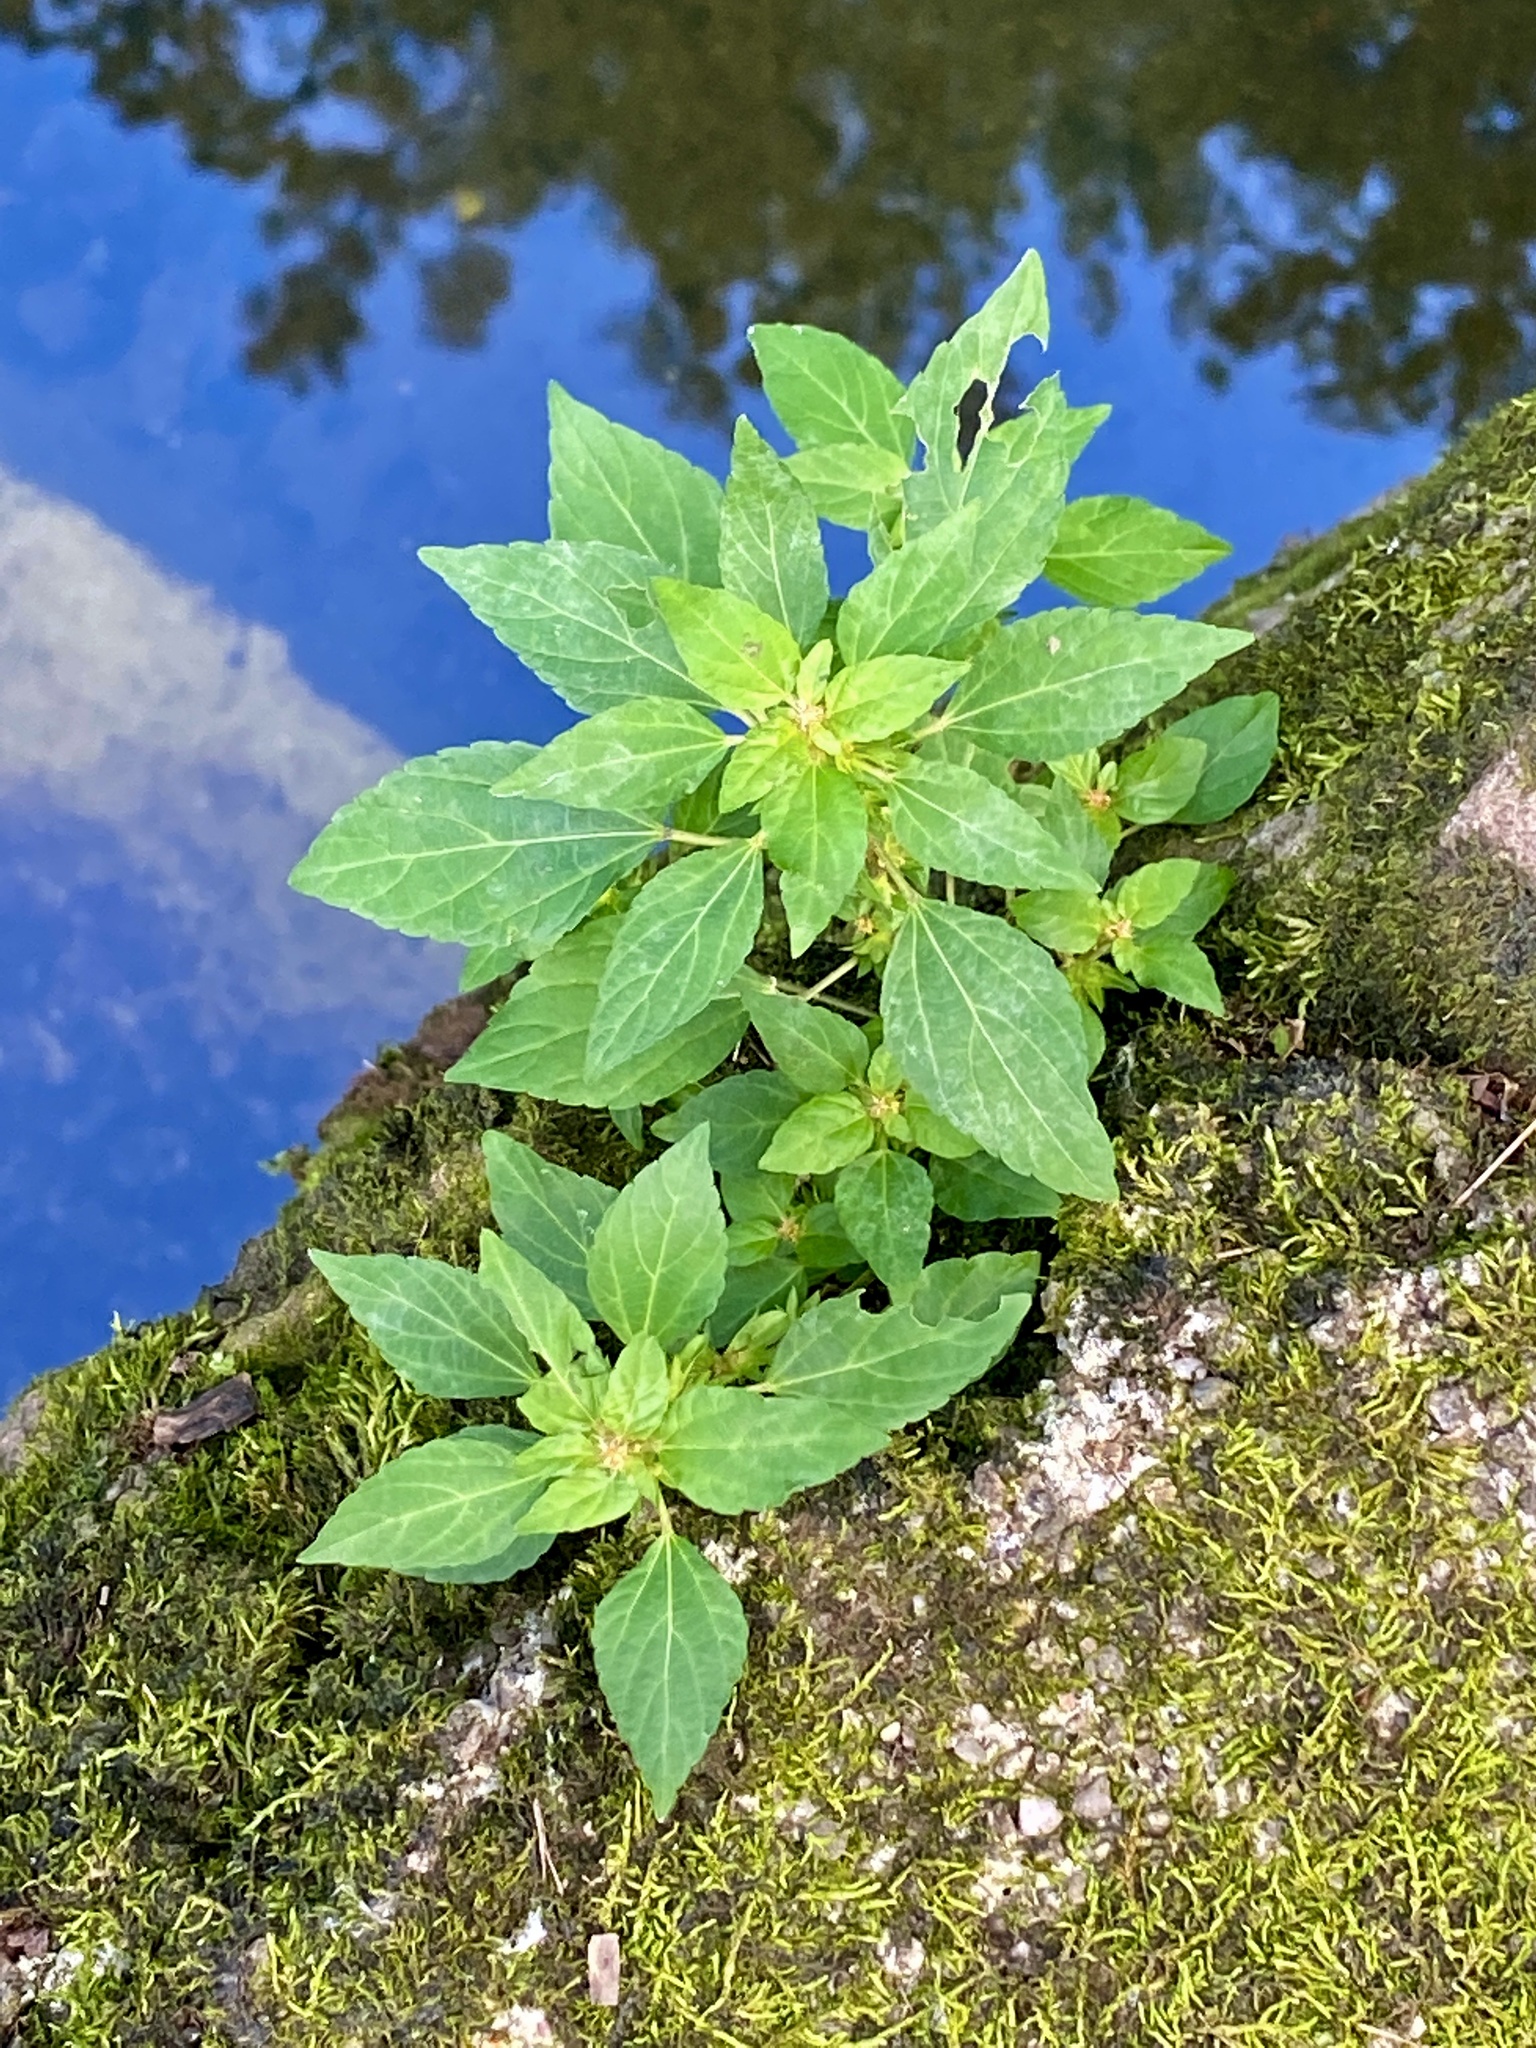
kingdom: Plantae
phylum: Tracheophyta
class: Magnoliopsida
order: Malpighiales
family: Euphorbiaceae
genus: Acalypha
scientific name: Acalypha rhomboidea
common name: Rhombic copperleaf
